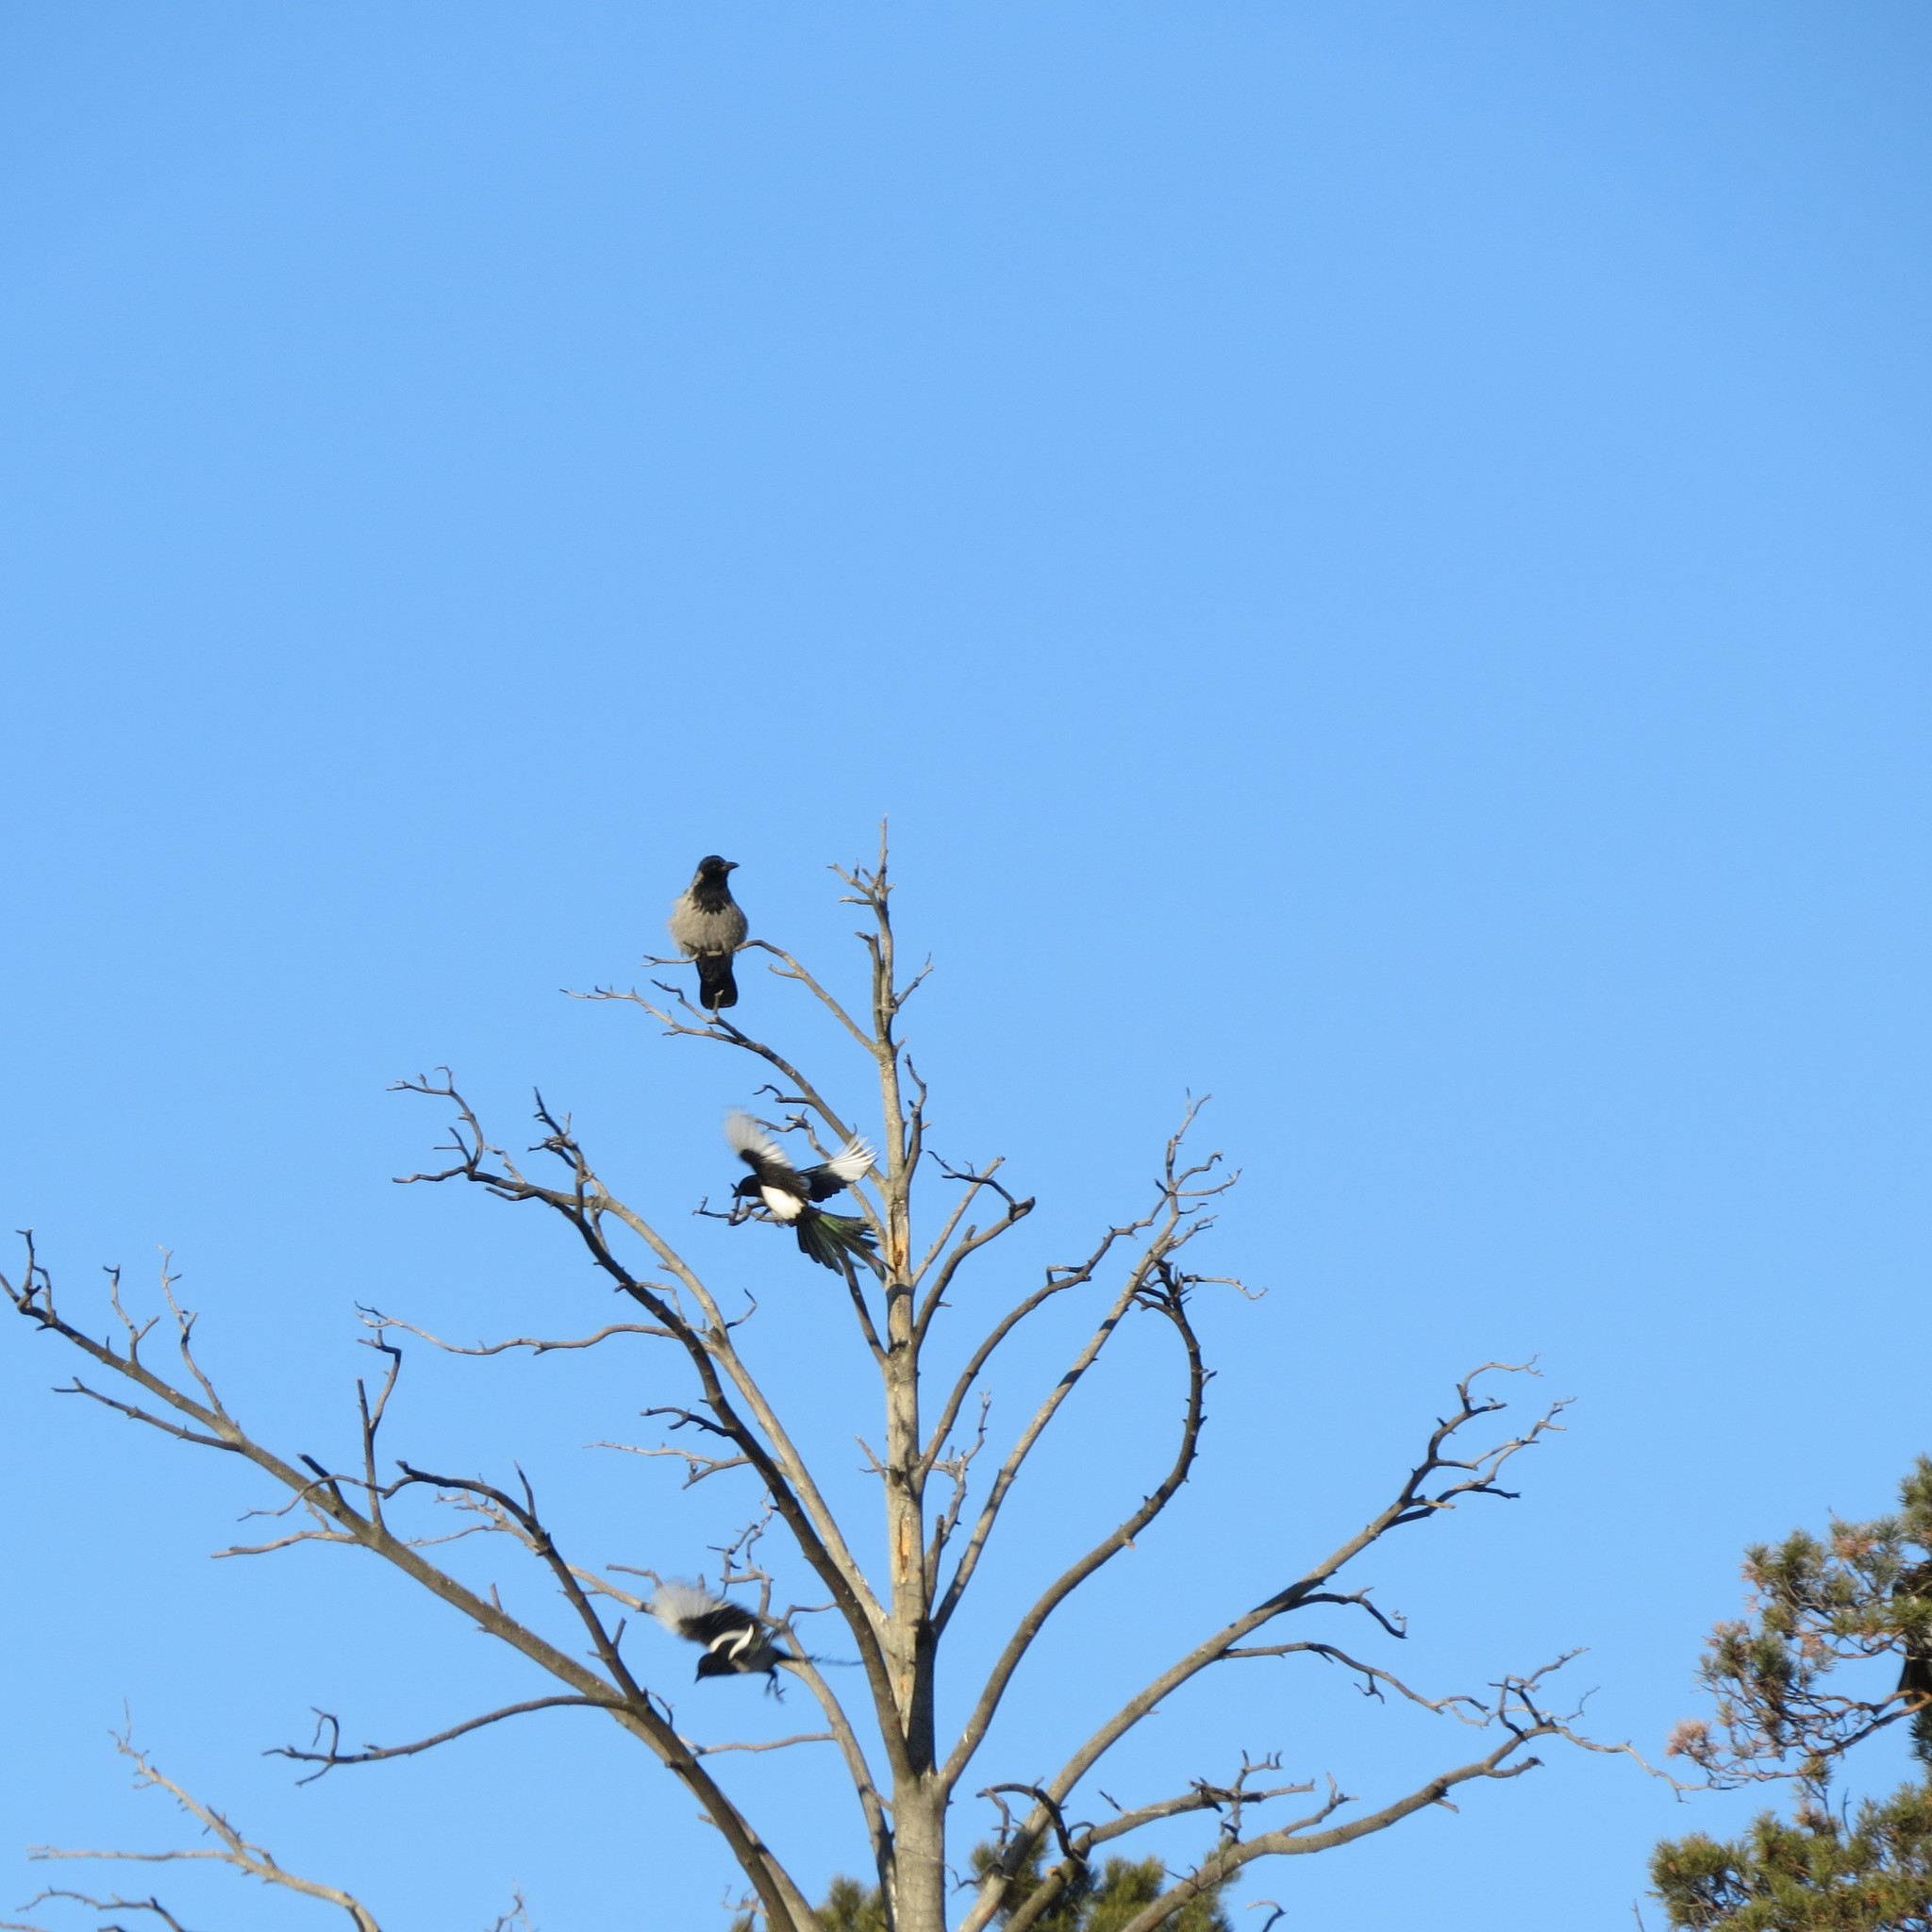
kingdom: Animalia
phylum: Chordata
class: Aves
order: Passeriformes
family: Corvidae
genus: Pica
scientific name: Pica pica
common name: Eurasian magpie
